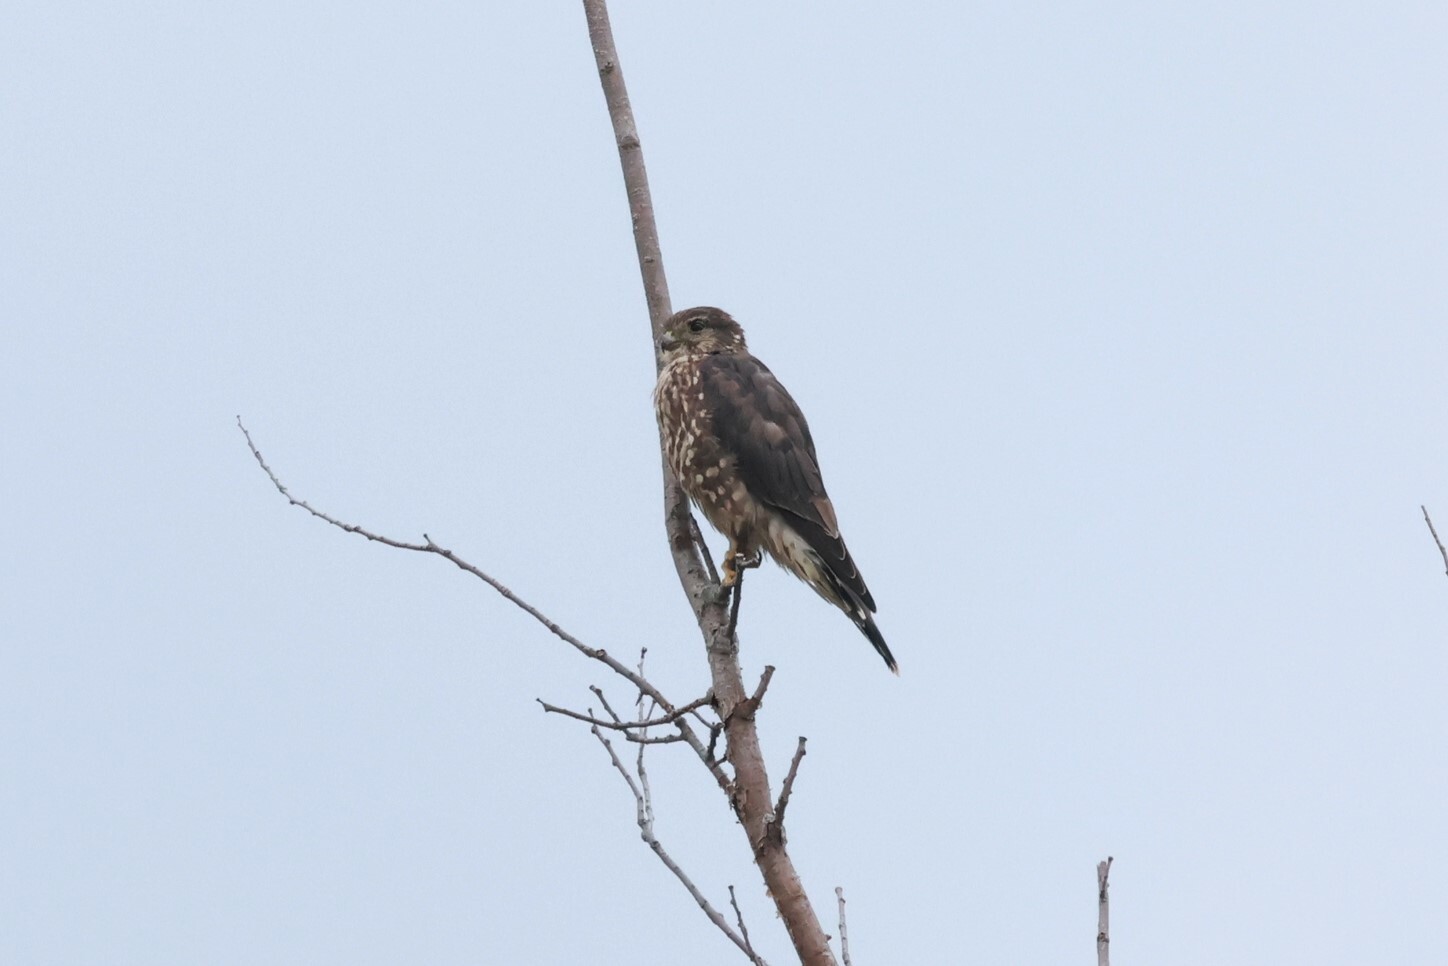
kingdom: Animalia
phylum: Chordata
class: Aves
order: Falconiformes
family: Falconidae
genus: Falco
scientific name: Falco columbarius
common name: Merlin
